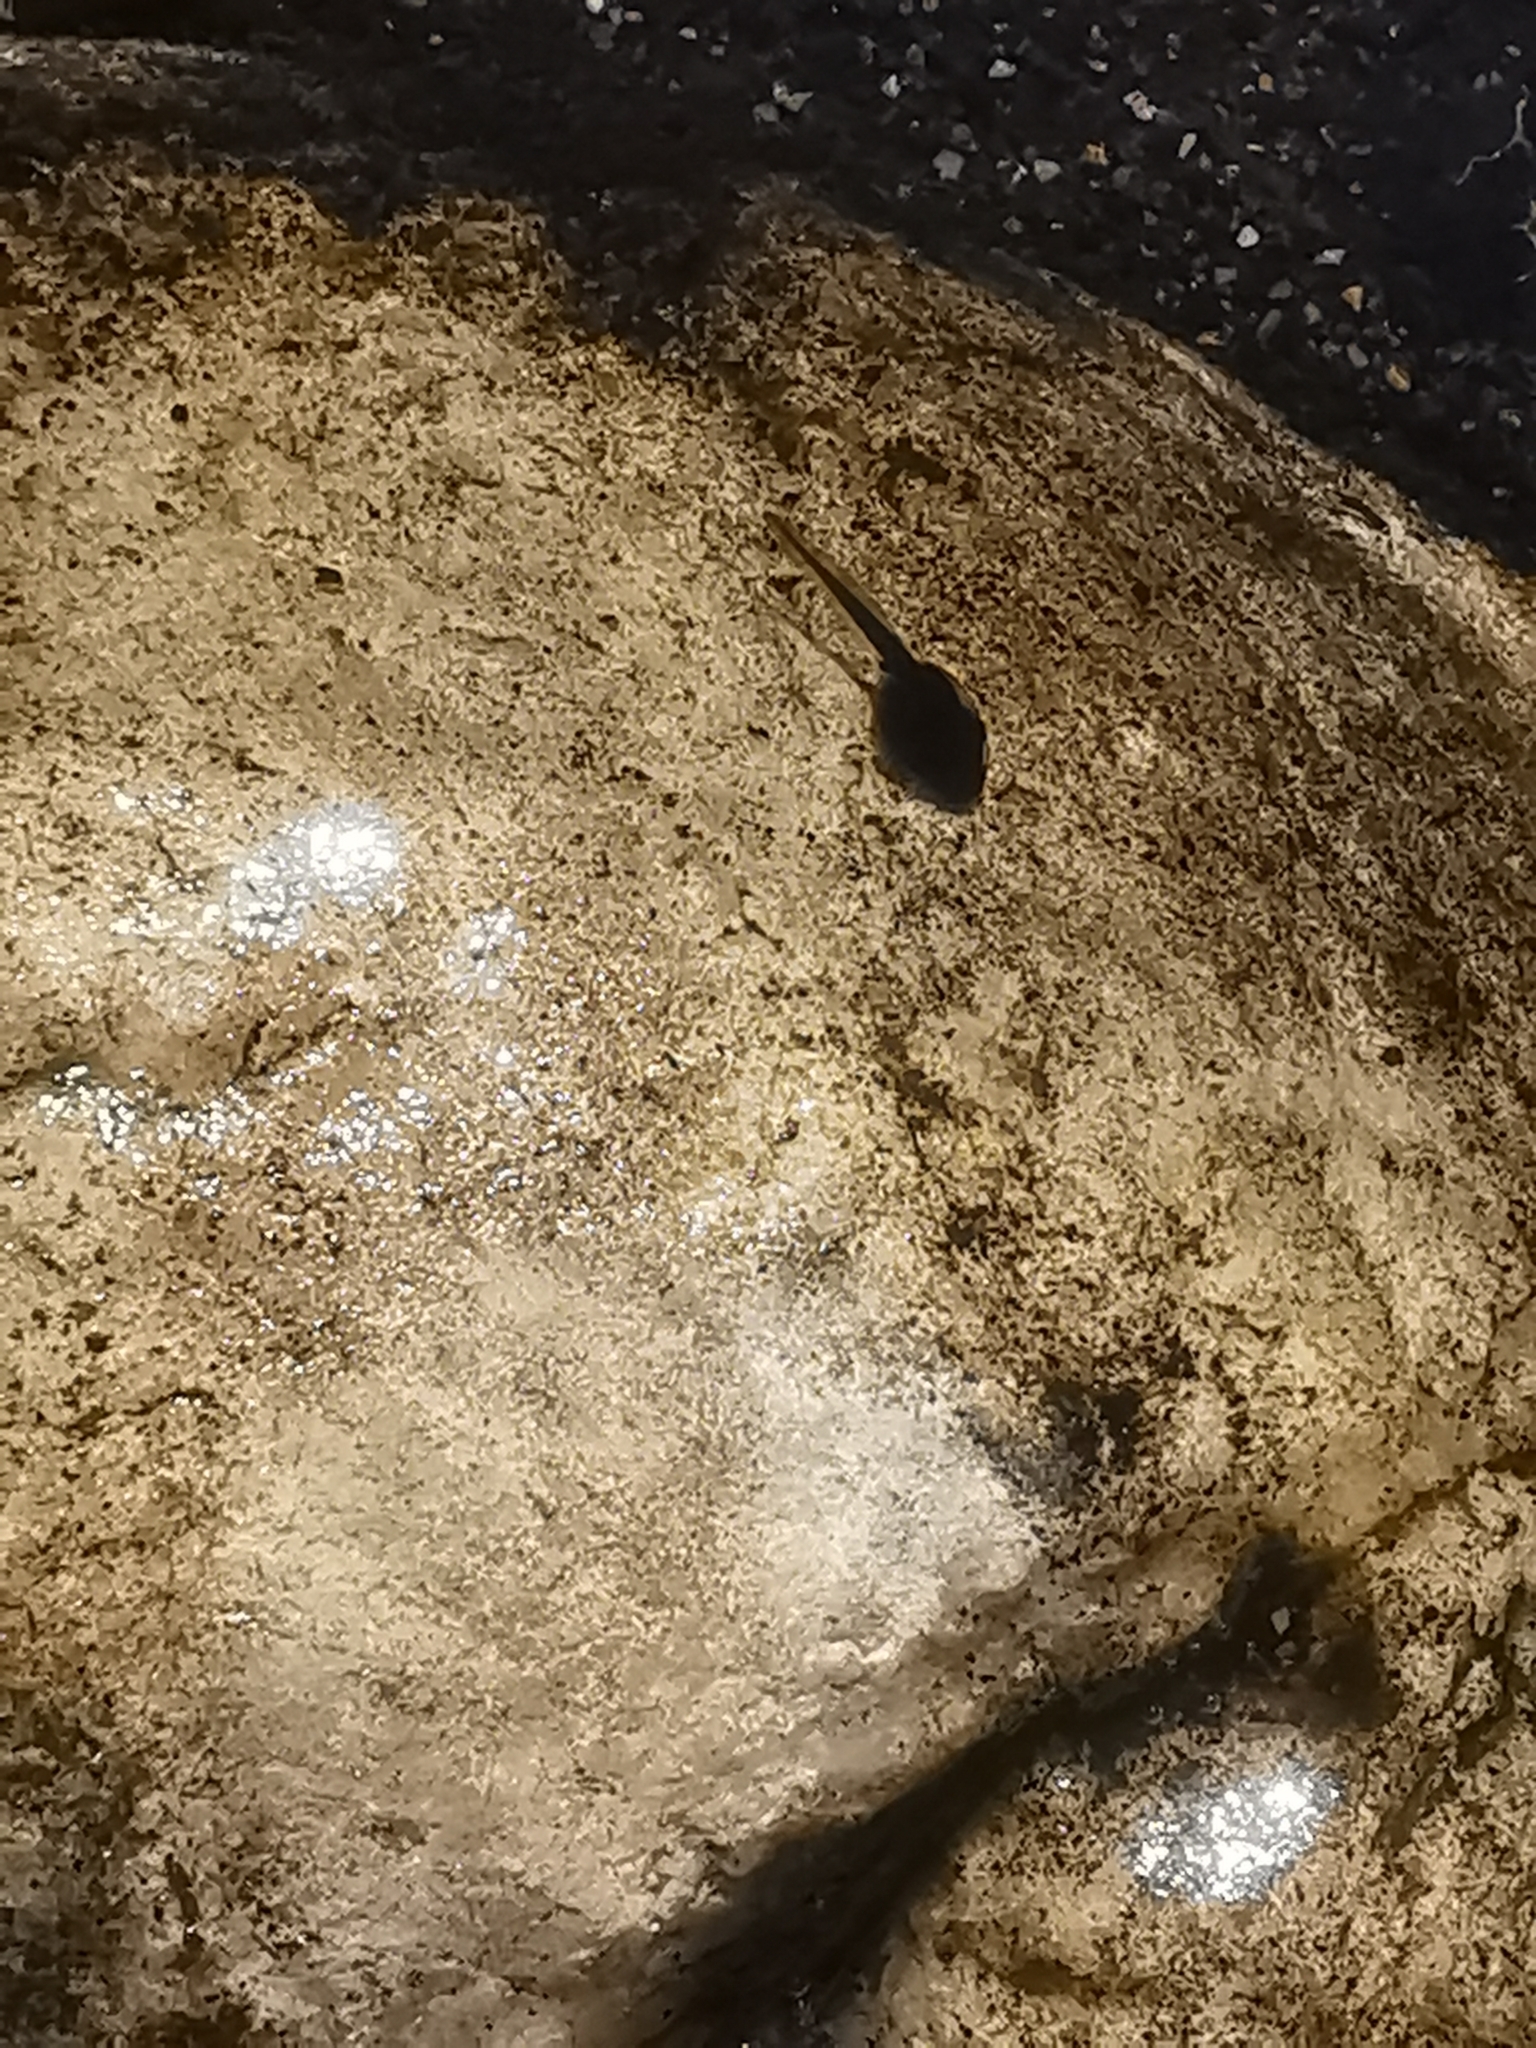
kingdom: Animalia
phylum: Chordata
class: Amphibia
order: Anura
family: Bufonidae
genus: Bufotes
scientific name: Bufotes viridis
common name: European green toad
